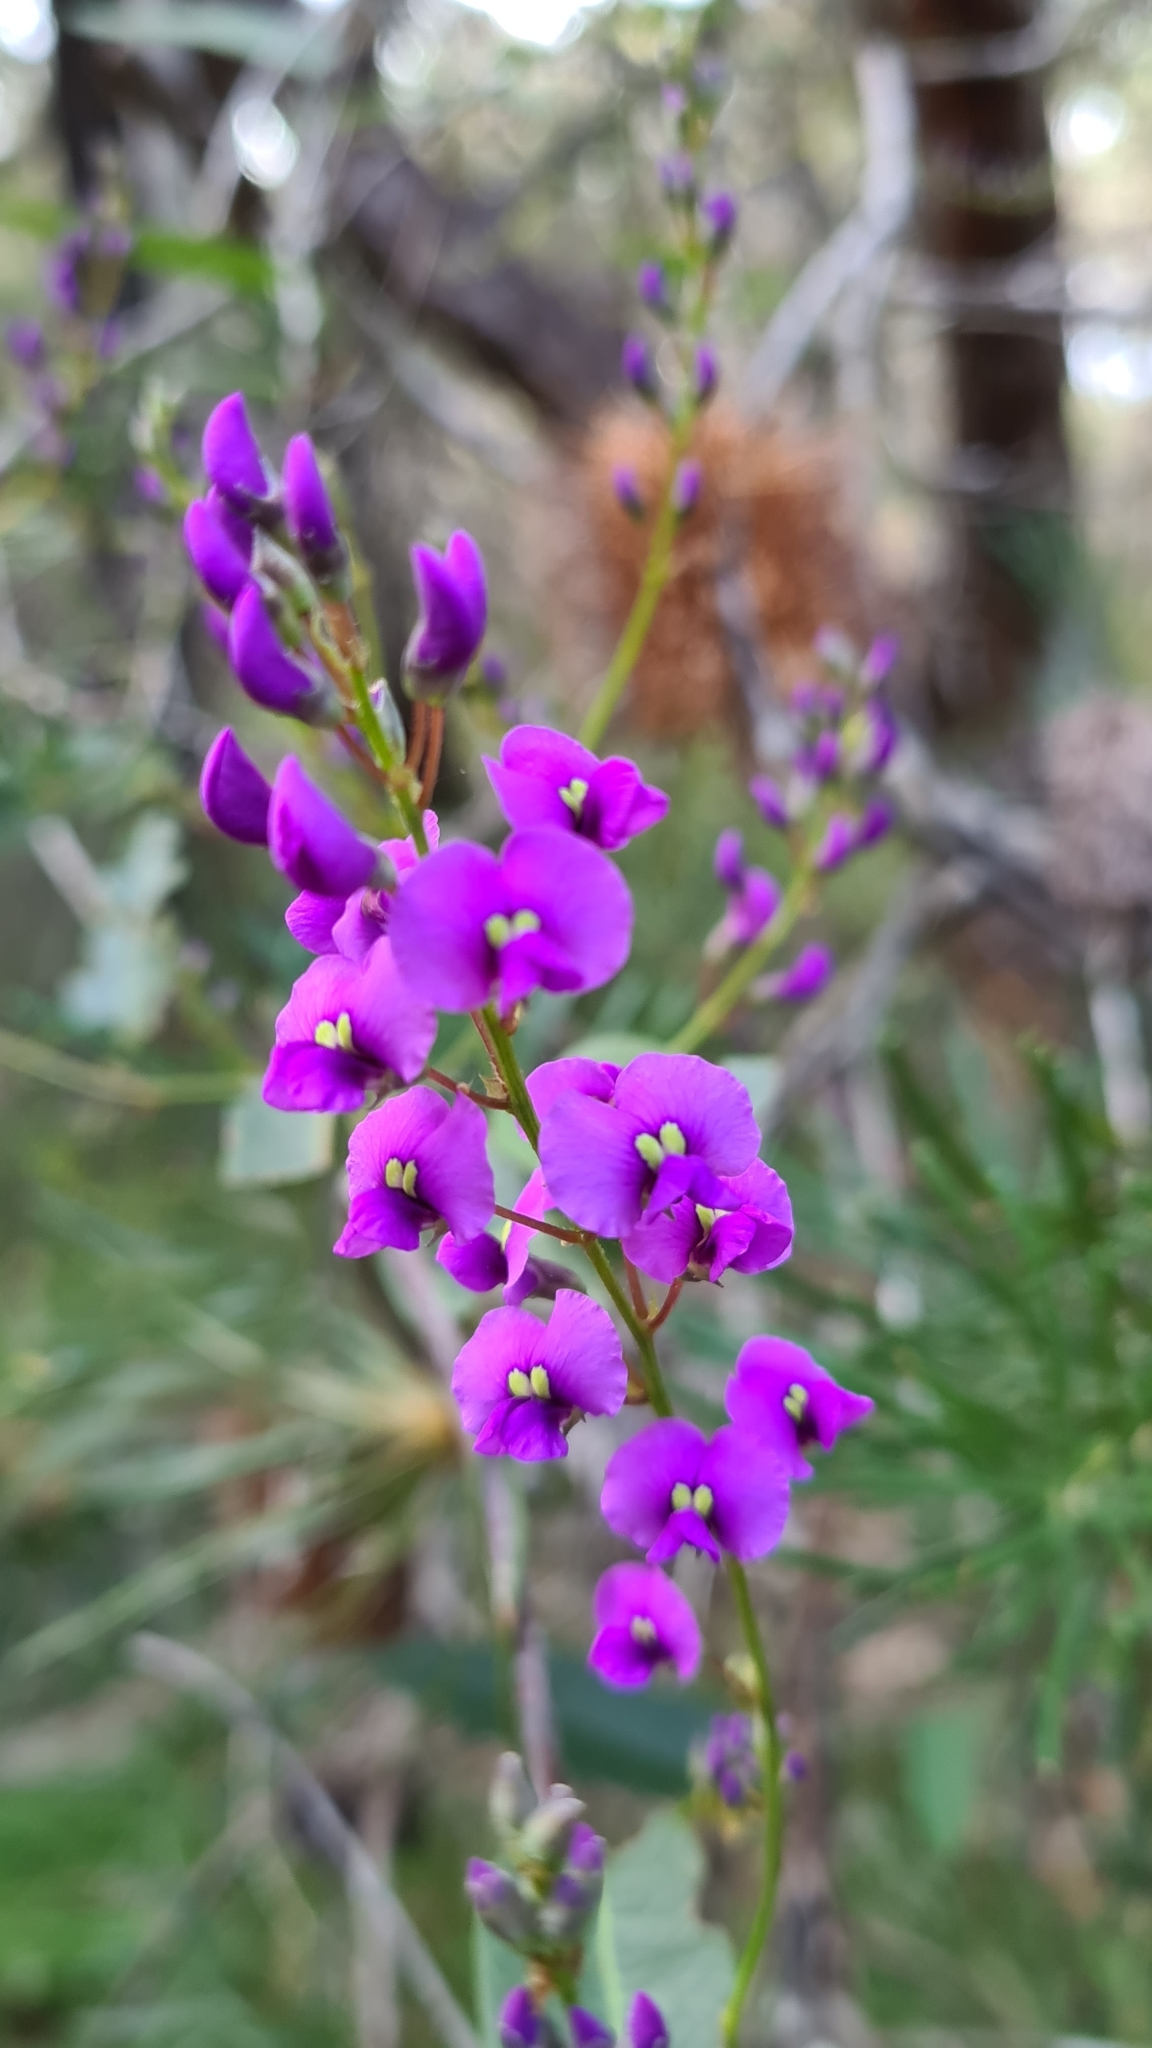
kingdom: Plantae
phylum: Tracheophyta
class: Magnoliopsida
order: Fabales
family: Fabaceae
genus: Hardenbergia
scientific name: Hardenbergia violacea
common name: Coral-pea
